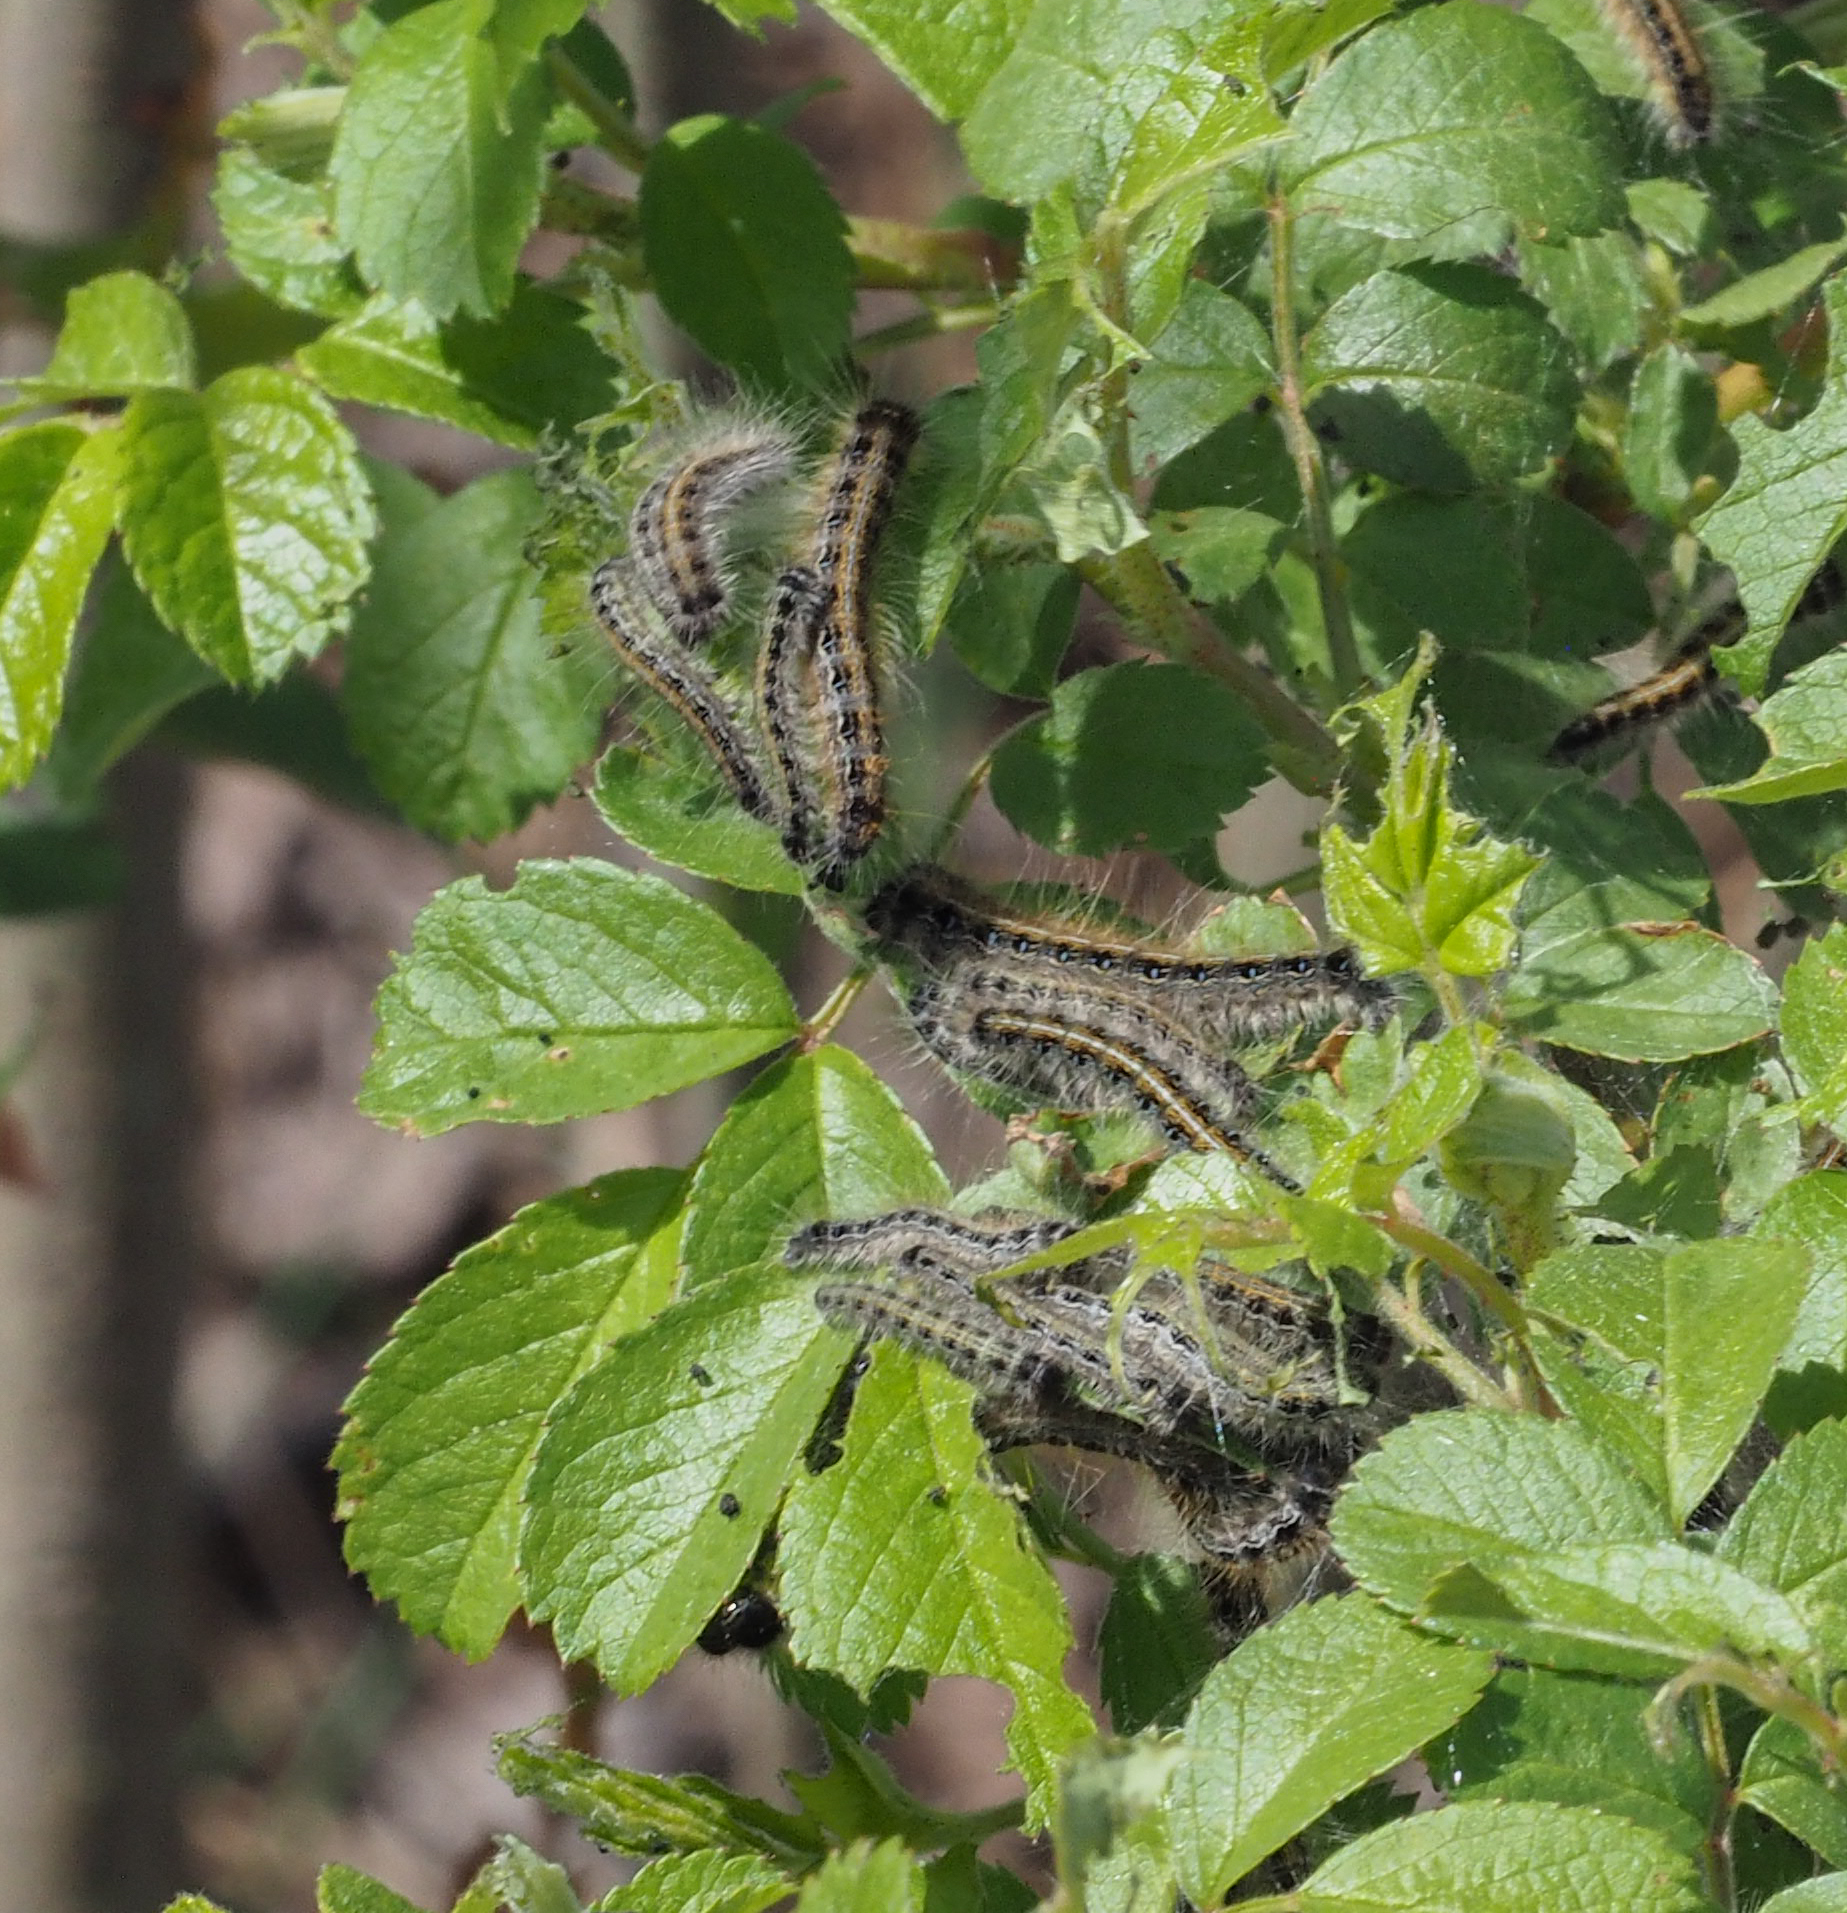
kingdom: Animalia
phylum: Arthropoda
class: Insecta
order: Lepidoptera
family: Lasiocampidae
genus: Malacosoma
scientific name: Malacosoma americana
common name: Eastern tent caterpillar moth
